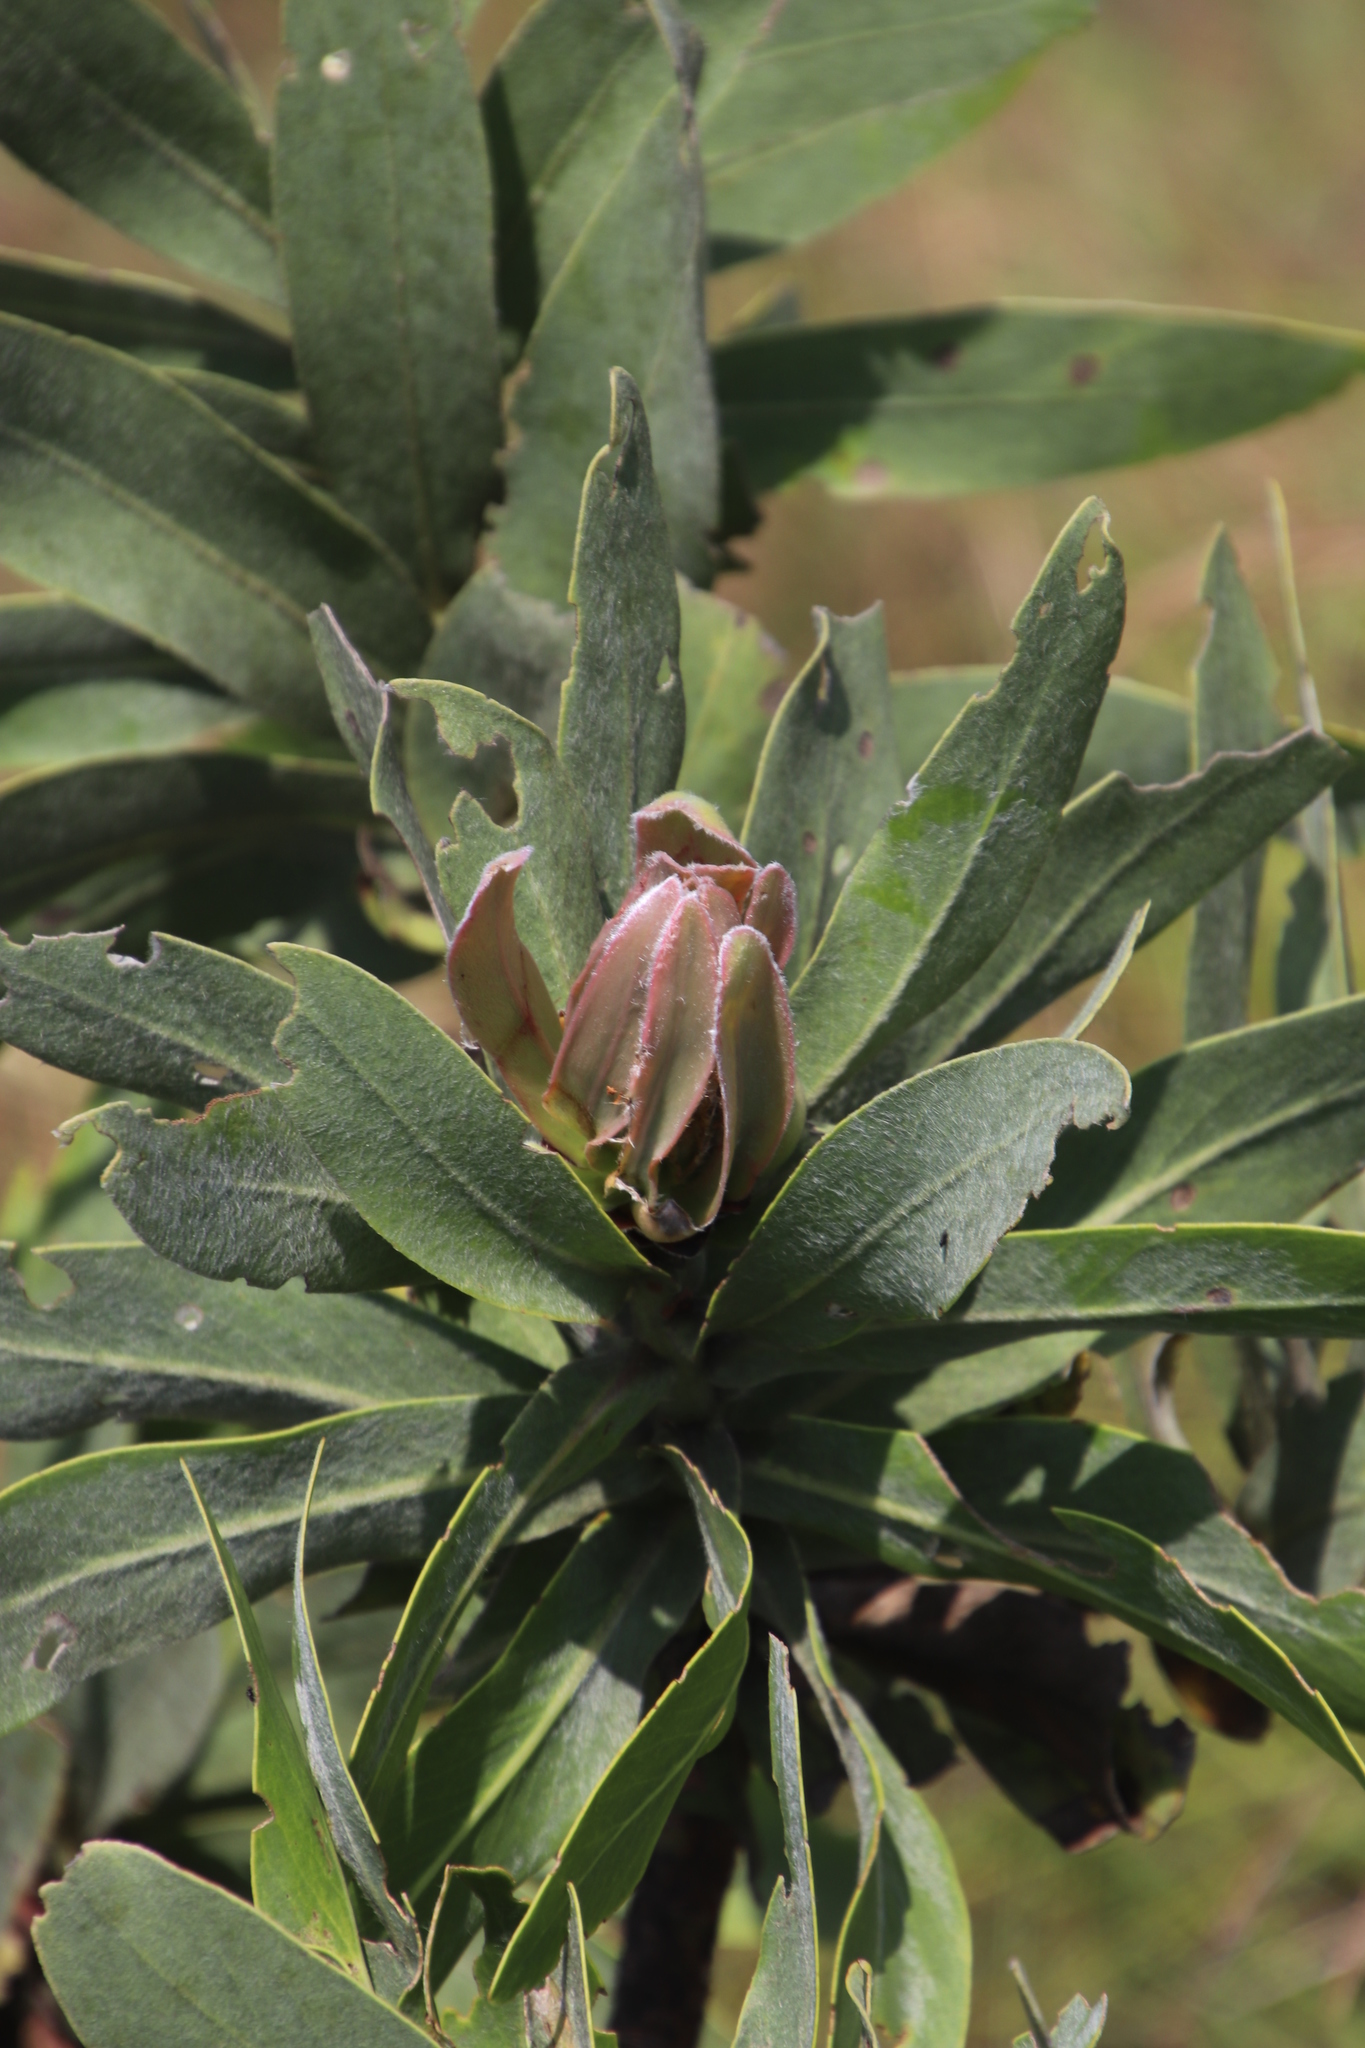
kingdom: Plantae
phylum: Tracheophyta
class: Magnoliopsida
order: Proteales
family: Proteaceae
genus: Protea
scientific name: Protea gaguedi
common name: African protea
